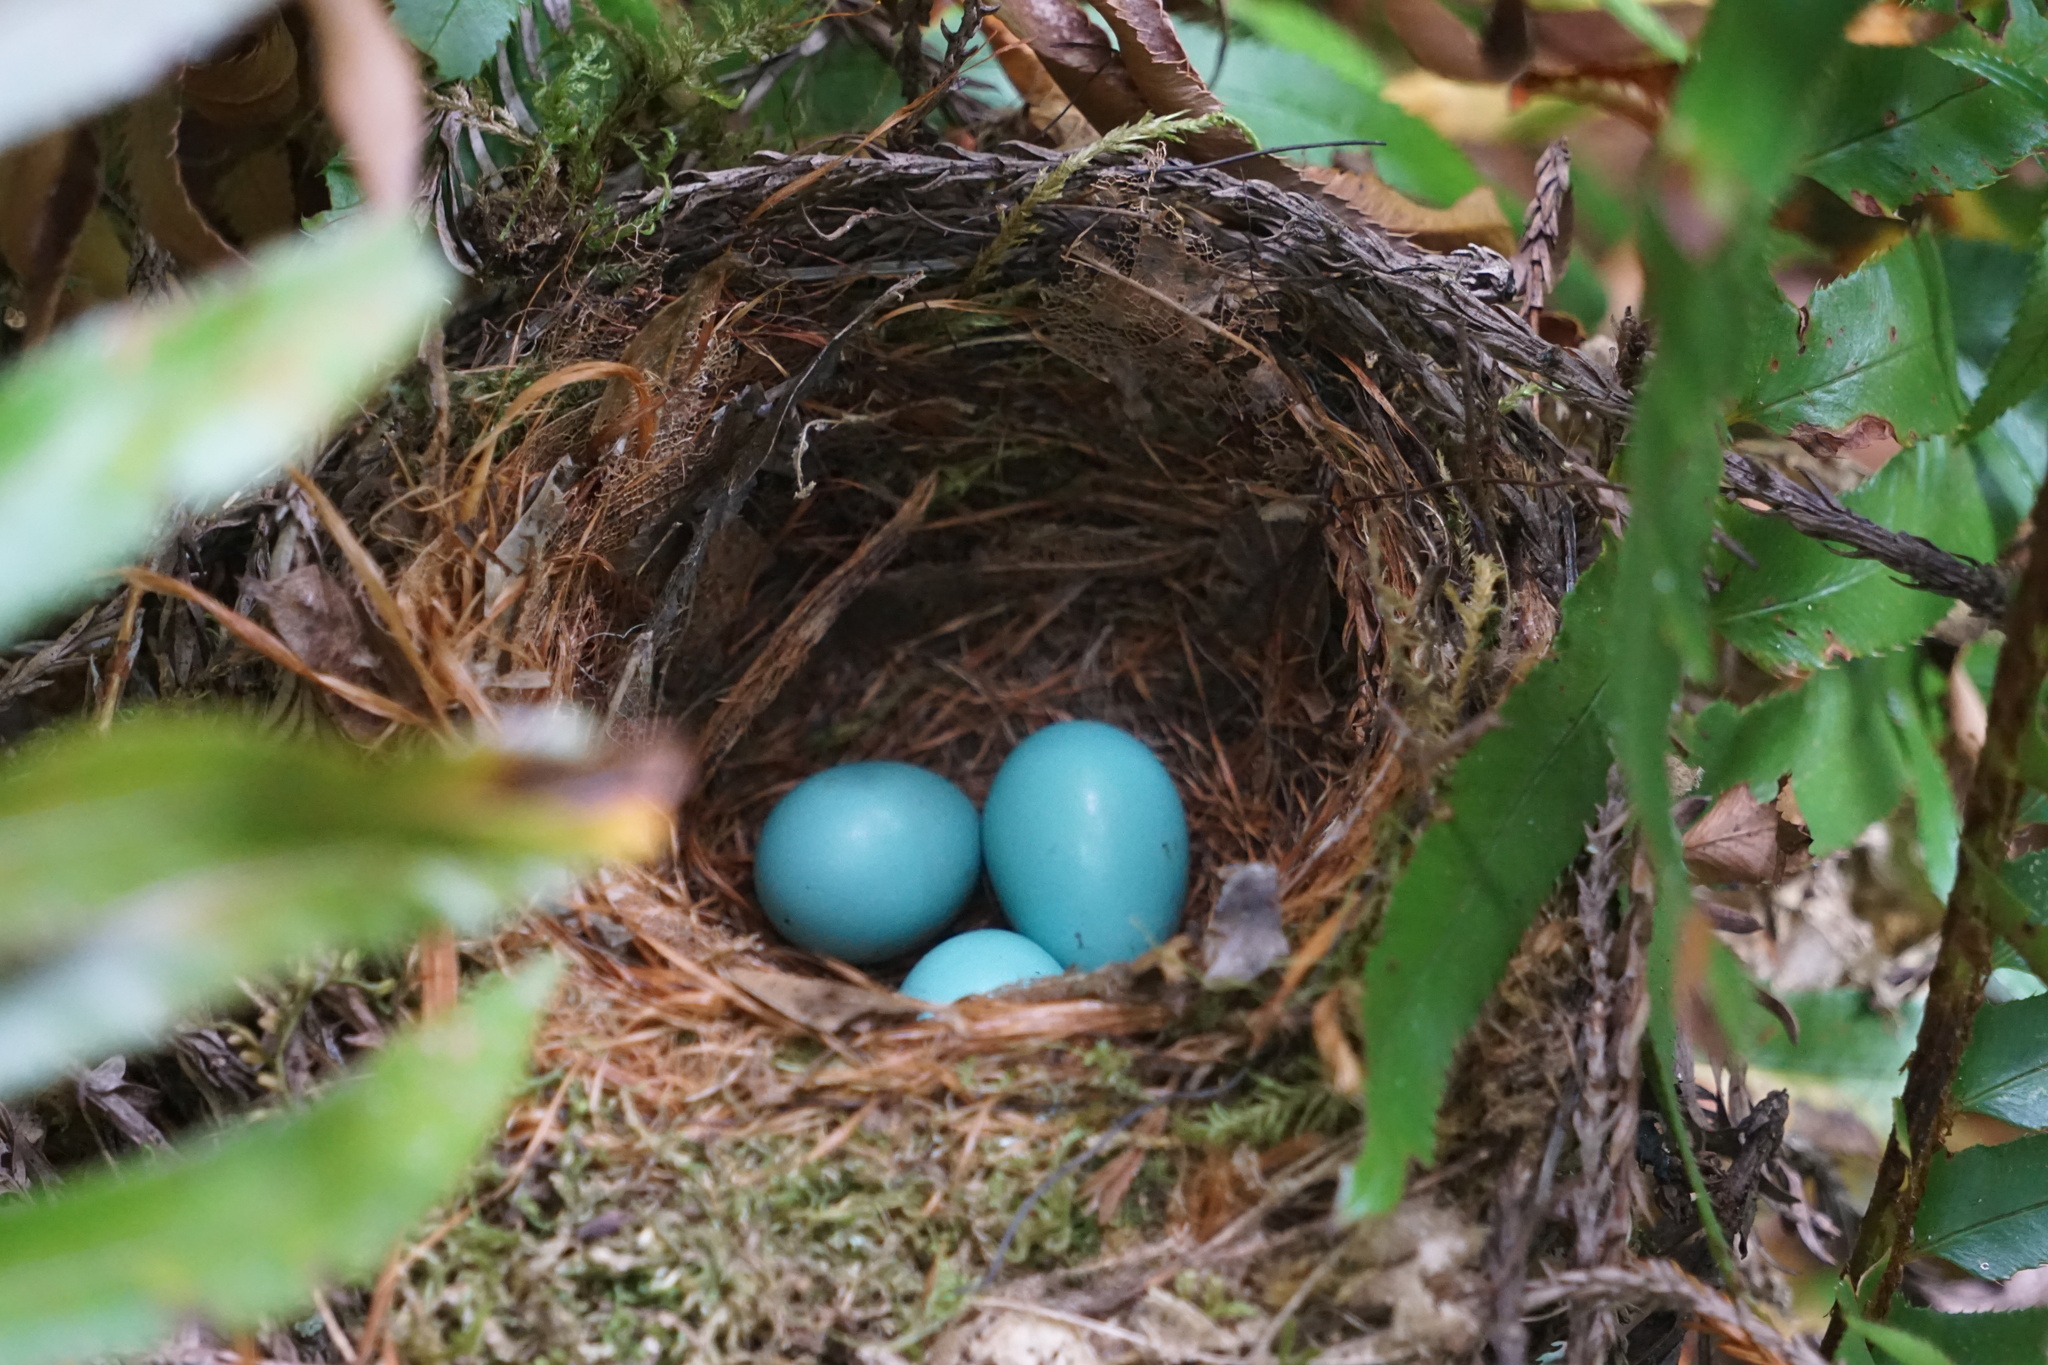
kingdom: Animalia
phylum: Chordata
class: Aves
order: Passeriformes
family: Turdidae
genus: Turdus
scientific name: Turdus migratorius
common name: American robin
